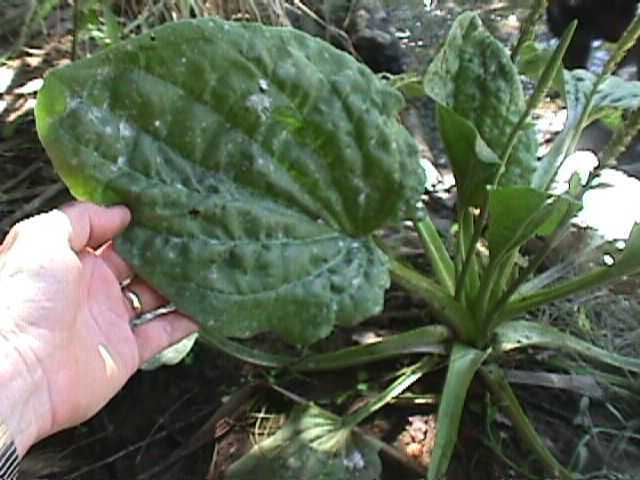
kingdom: Plantae
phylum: Tracheophyta
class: Magnoliopsida
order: Lamiales
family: Plantaginaceae
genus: Plantago
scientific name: Plantago major
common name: Common plantain
